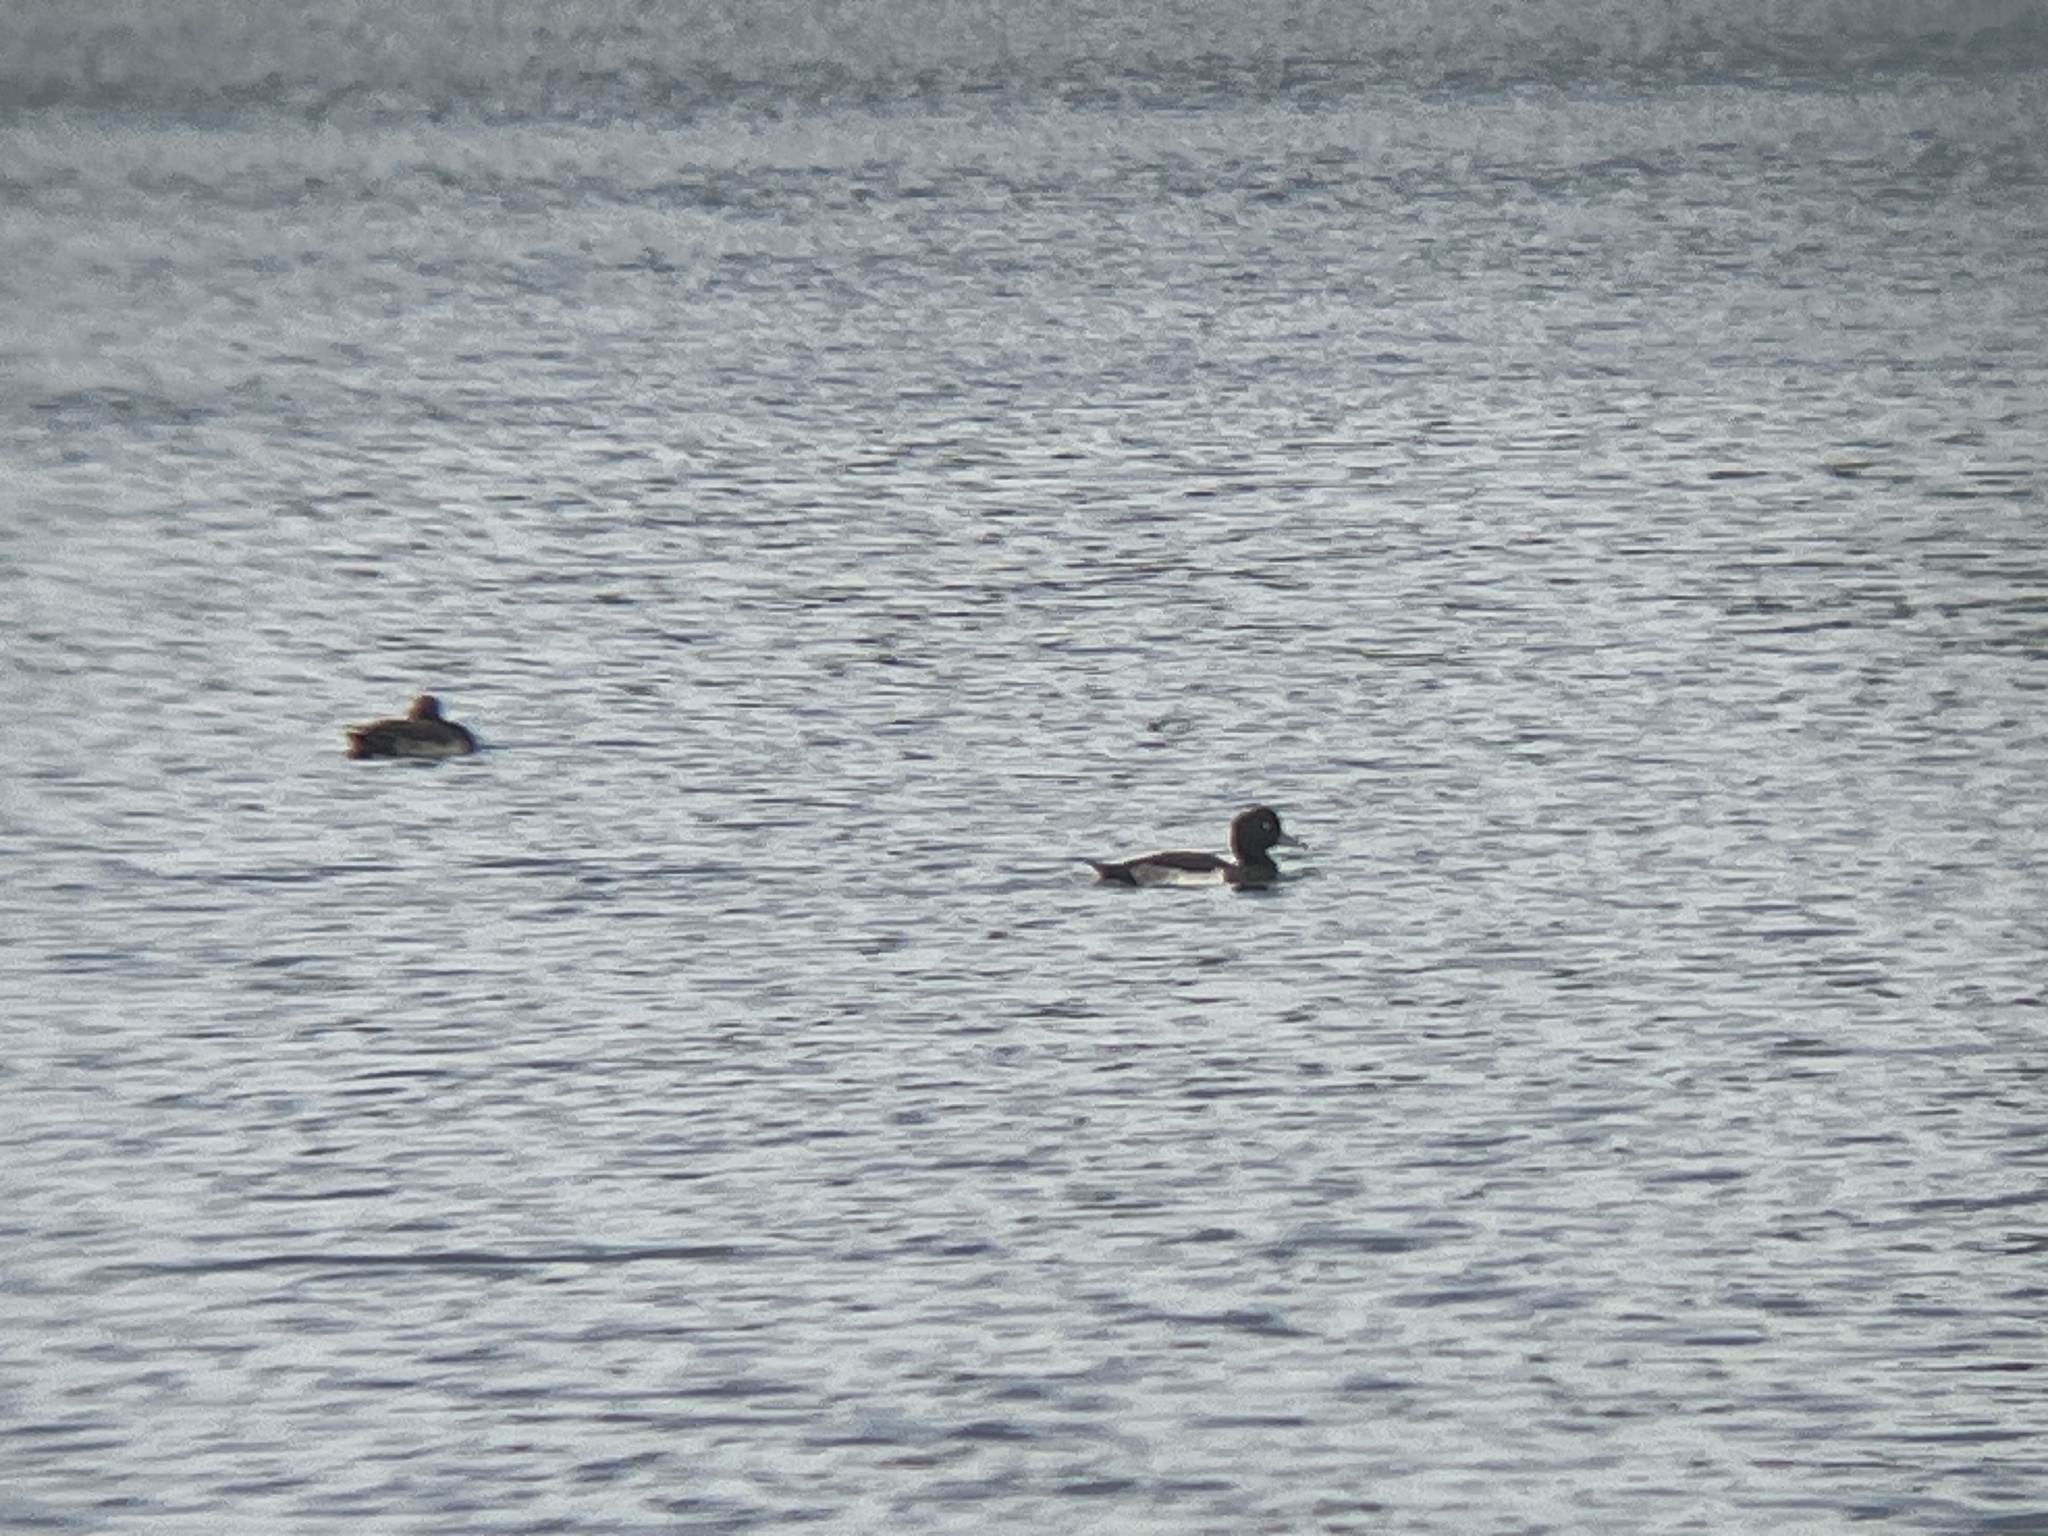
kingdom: Animalia
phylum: Chordata
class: Aves
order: Anseriformes
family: Anatidae
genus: Aythya
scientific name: Aythya fuligula
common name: Tufted duck
